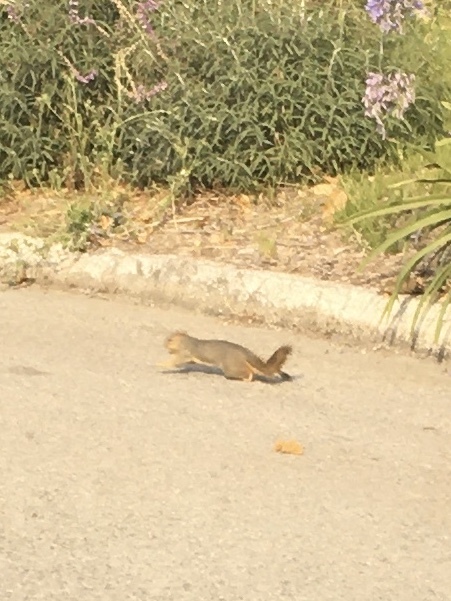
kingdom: Animalia
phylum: Chordata
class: Mammalia
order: Rodentia
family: Sciuridae
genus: Sciurus
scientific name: Sciurus niger
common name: Fox squirrel
